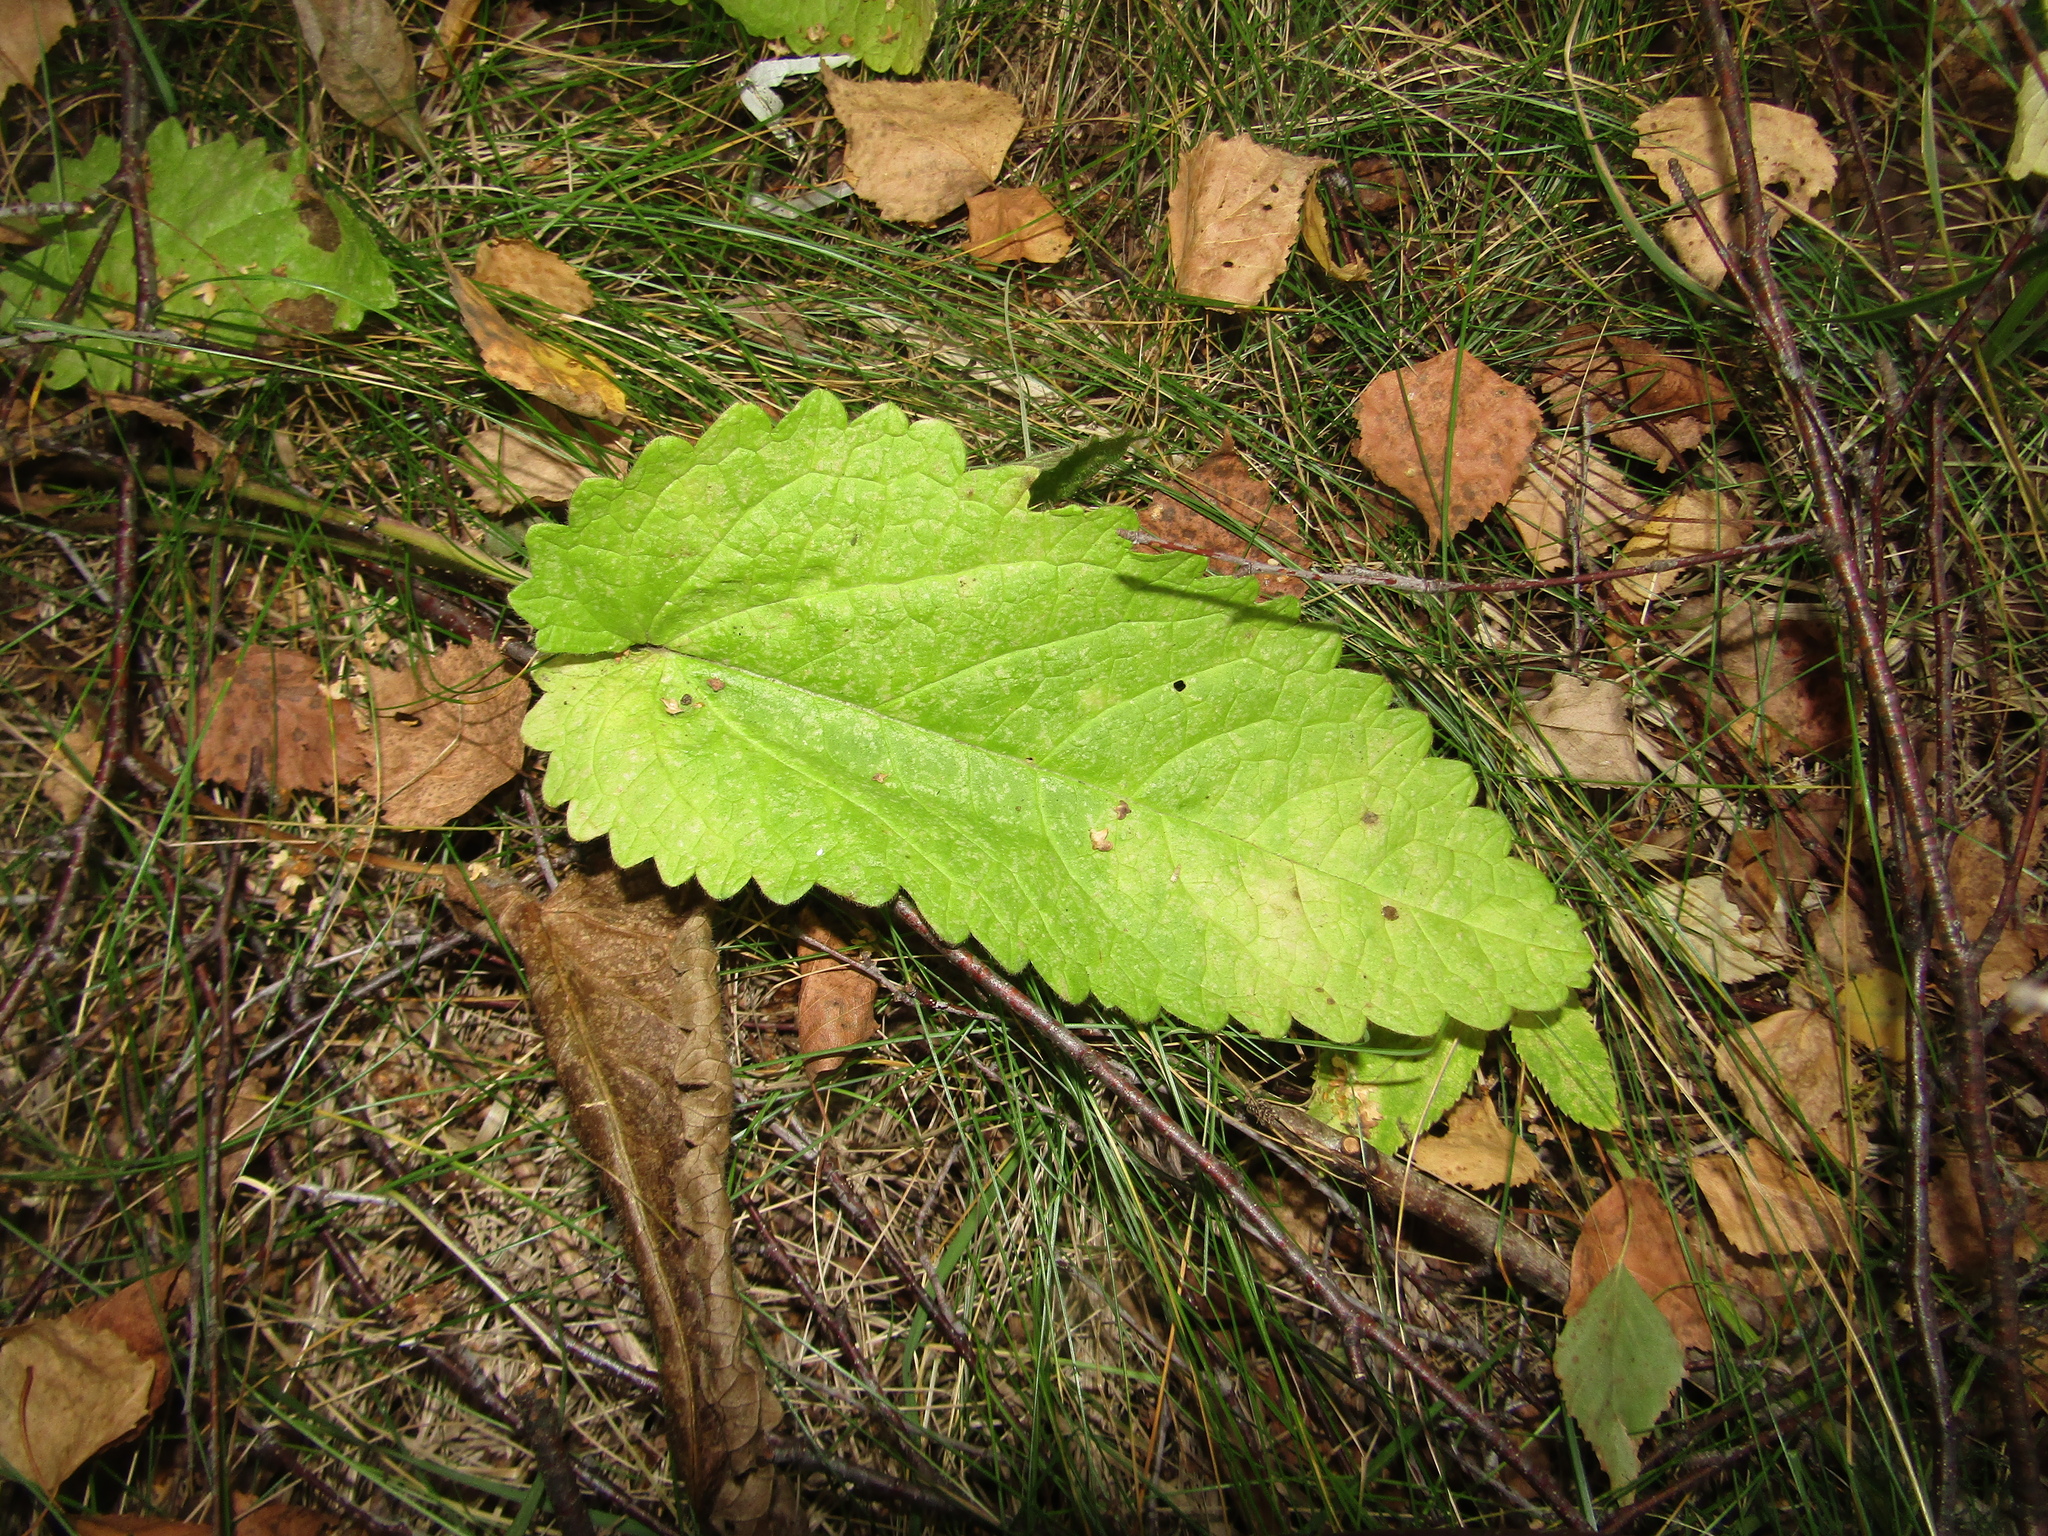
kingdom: Plantae
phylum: Tracheophyta
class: Magnoliopsida
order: Lamiales
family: Lamiaceae
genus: Betonica
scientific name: Betonica officinalis
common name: Bishop's-wort
